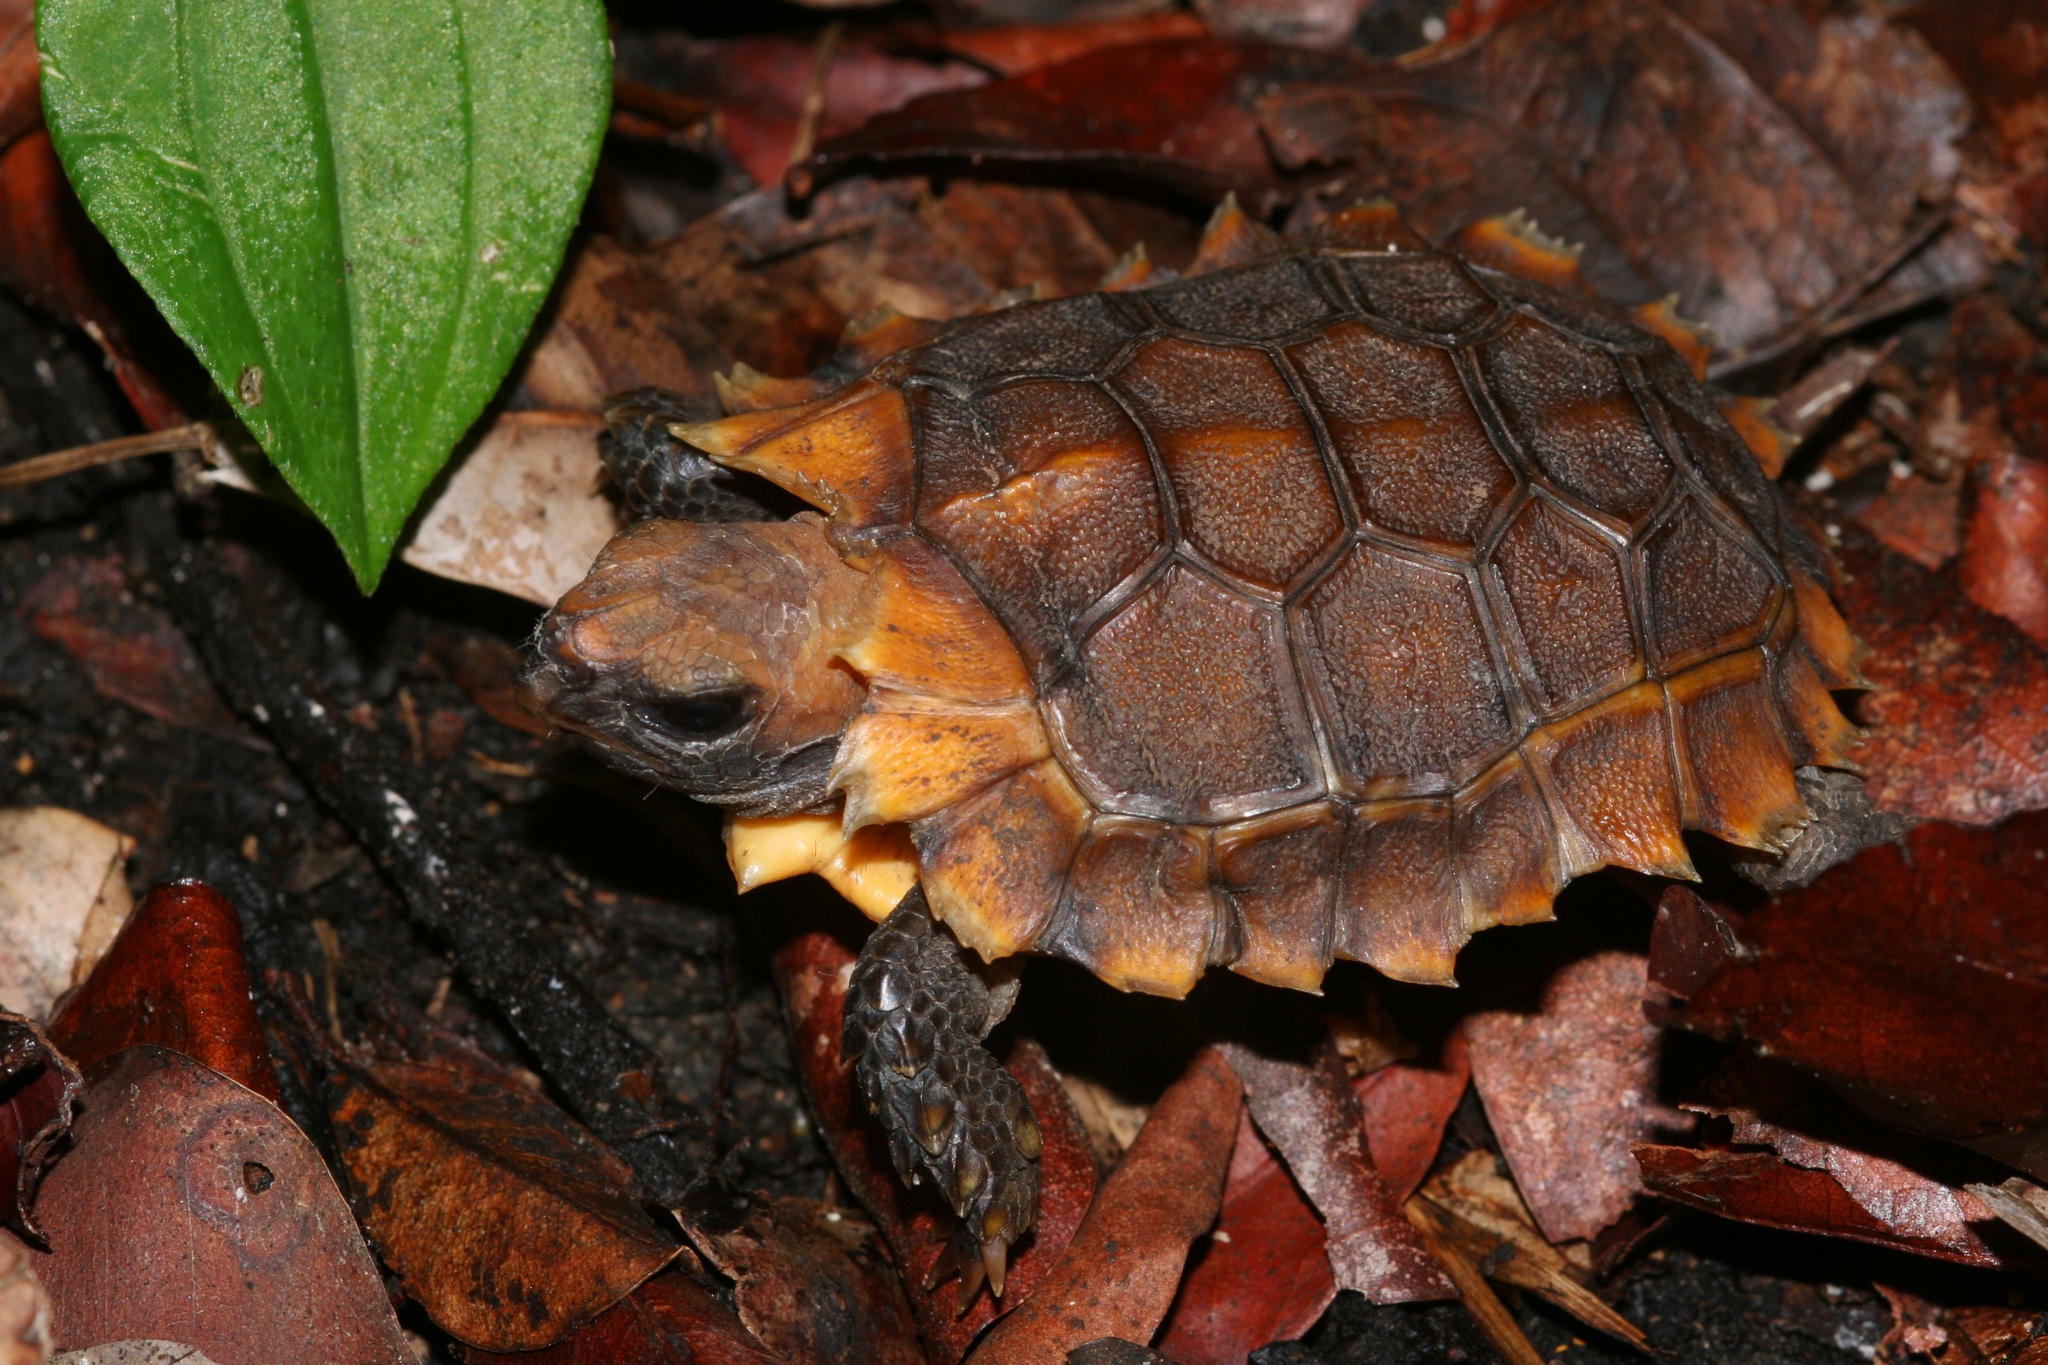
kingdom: Animalia
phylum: Chordata
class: Testudines
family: Testudinidae
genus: Kinixys
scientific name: Kinixys erosa
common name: Serrated hinge-back tortoise
